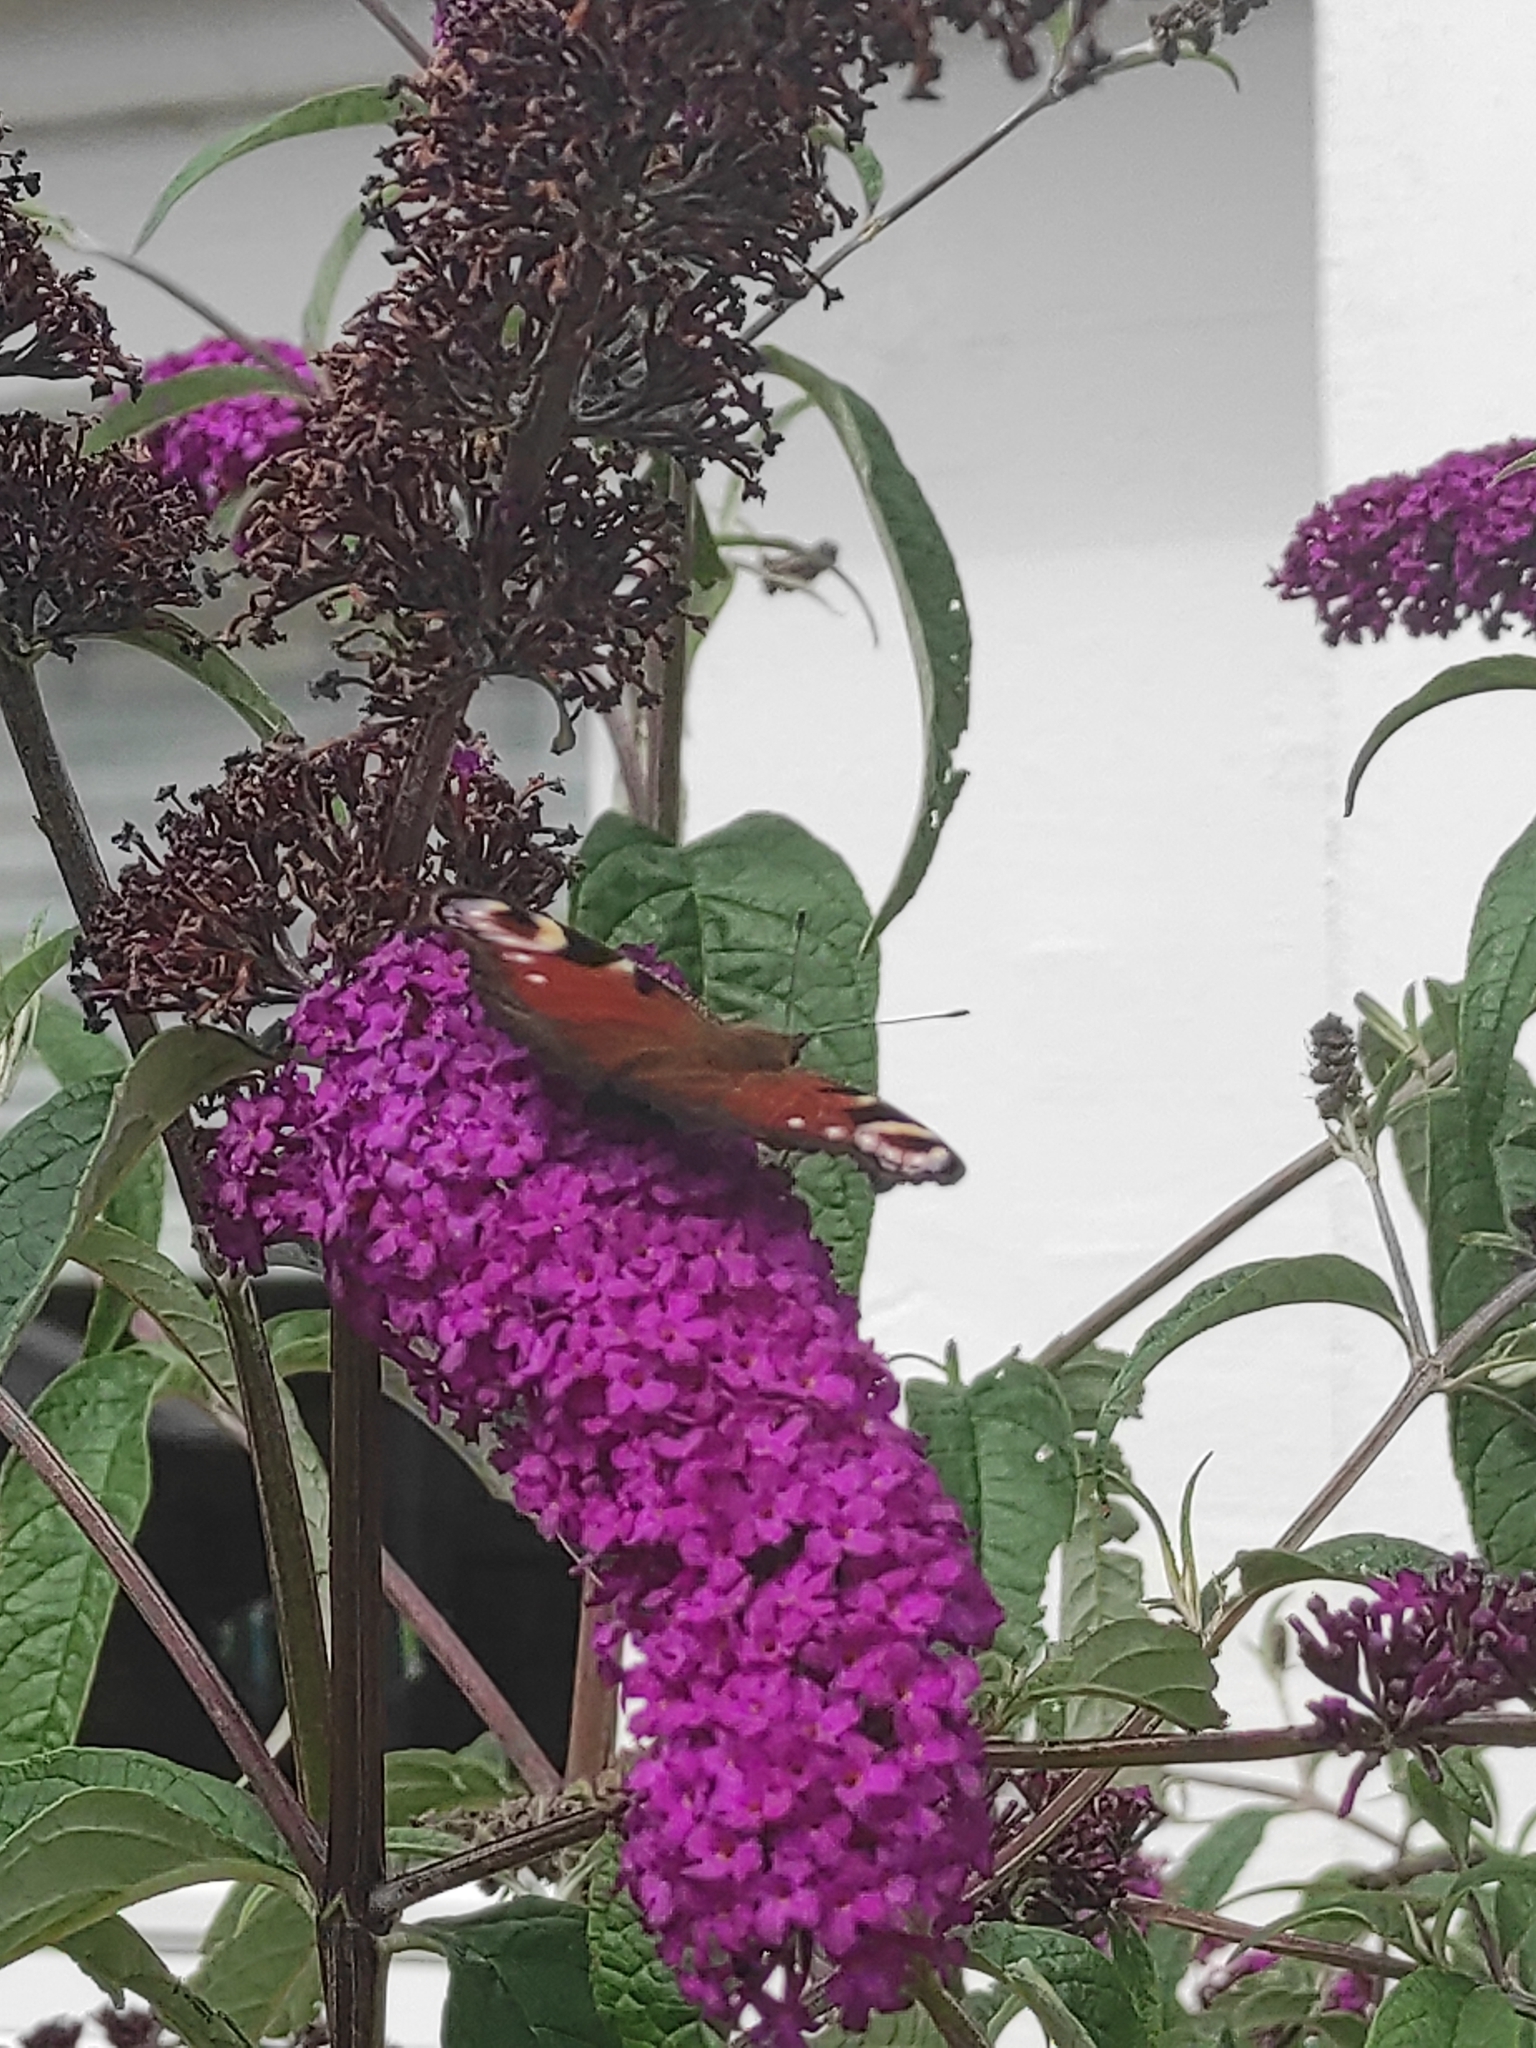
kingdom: Animalia
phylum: Arthropoda
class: Insecta
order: Lepidoptera
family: Nymphalidae
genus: Aglais
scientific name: Aglais io
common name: Peacock
